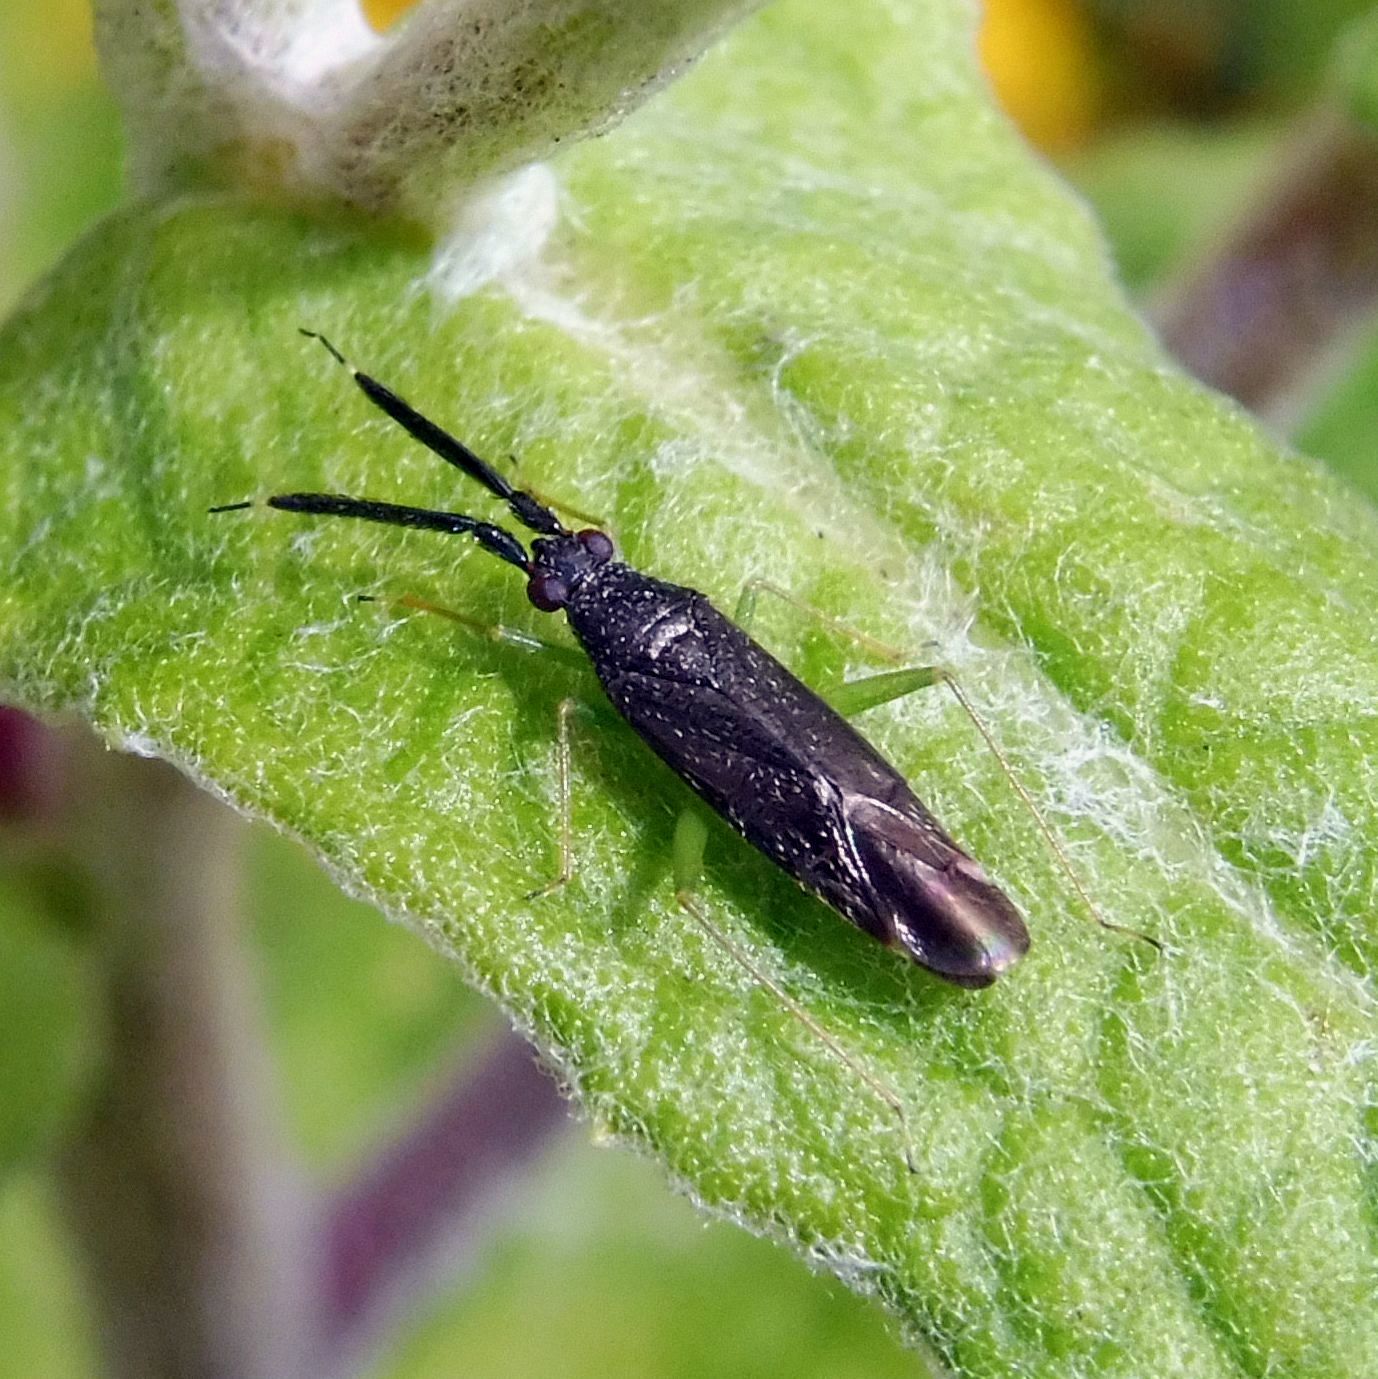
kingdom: Animalia
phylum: Arthropoda
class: Insecta
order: Hemiptera
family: Miridae
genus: Heterotoma
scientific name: Heterotoma planicornis
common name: Plant bug
